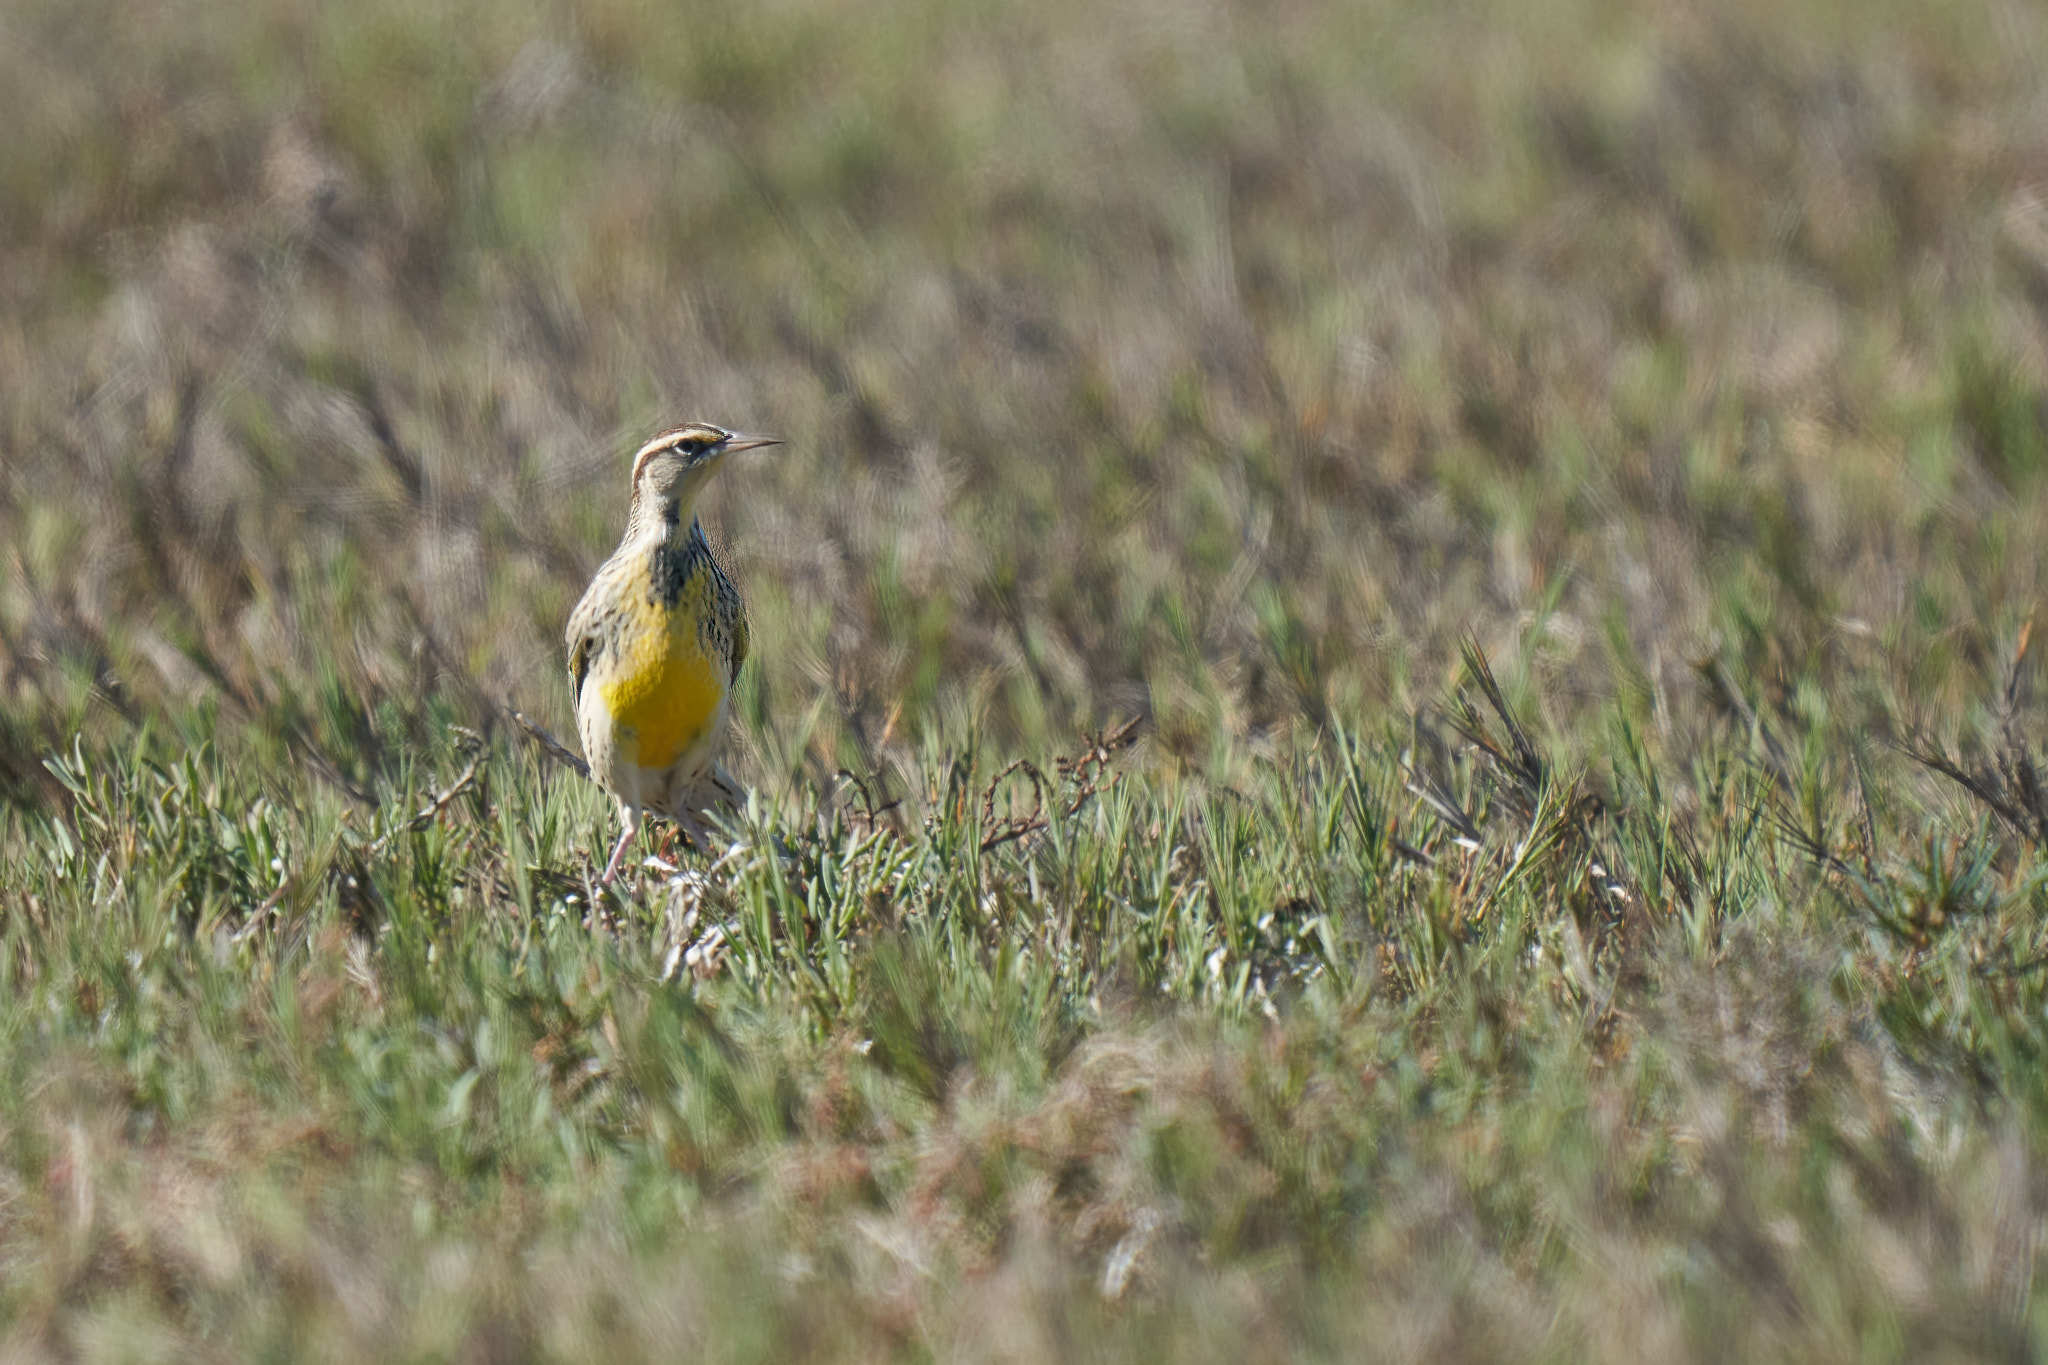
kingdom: Animalia
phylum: Chordata
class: Aves
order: Passeriformes
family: Icteridae
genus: Sturnella
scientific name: Sturnella neglecta
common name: Western meadowlark
